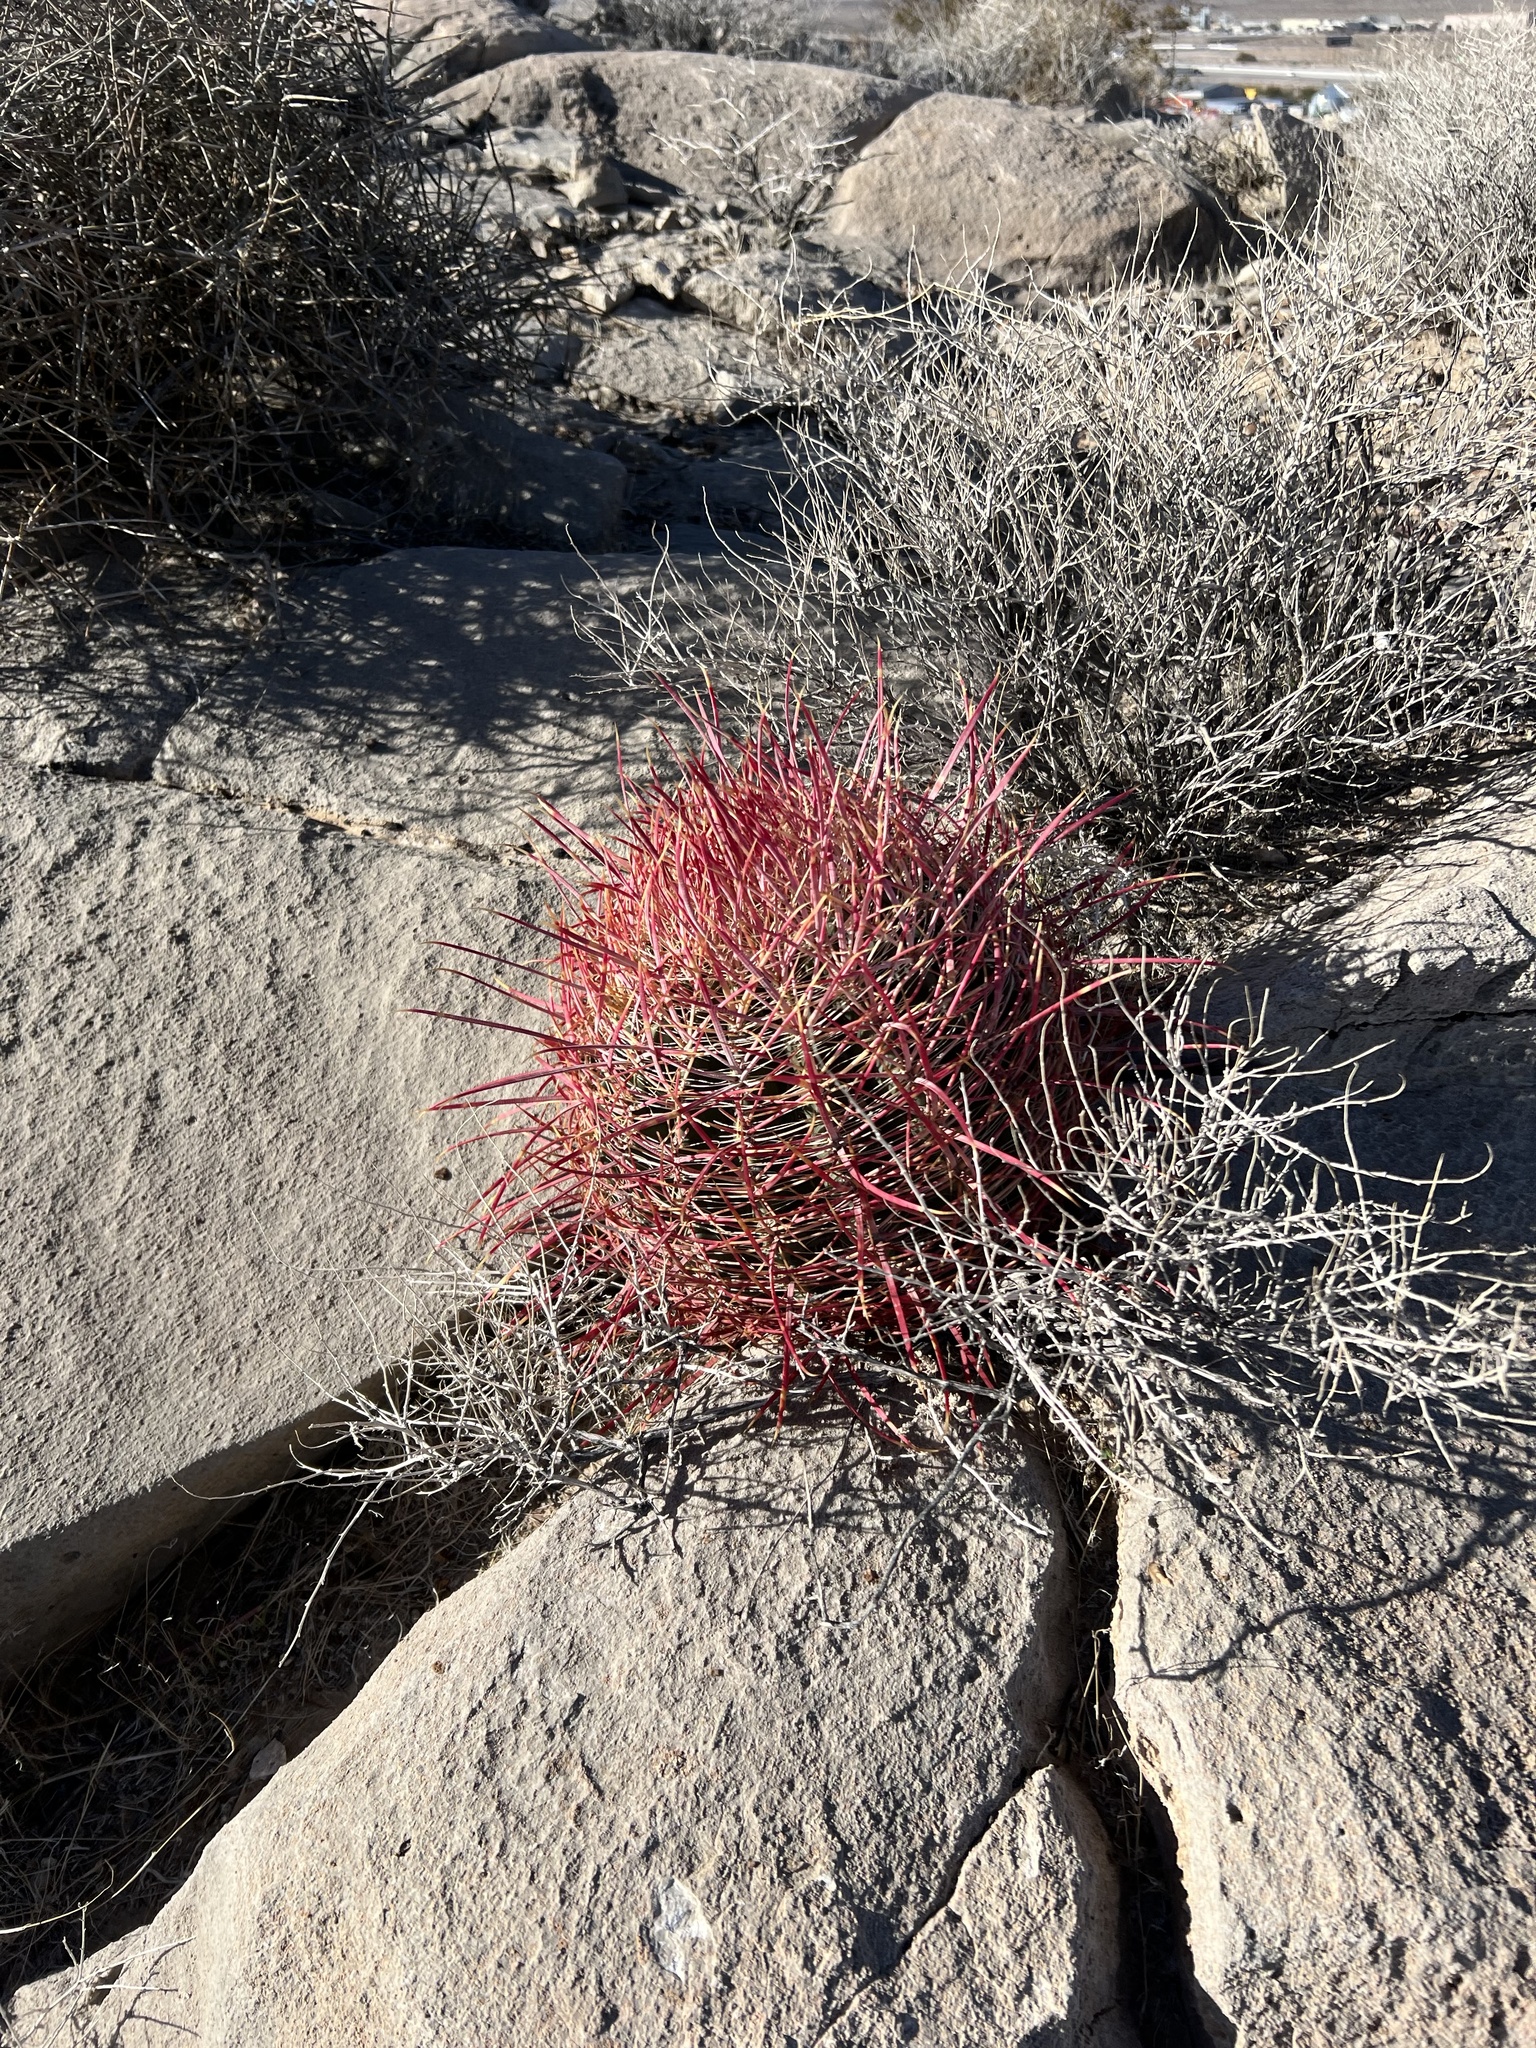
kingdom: Plantae
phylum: Tracheophyta
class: Magnoliopsida
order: Caryophyllales
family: Cactaceae
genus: Ferocactus
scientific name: Ferocactus cylindraceus
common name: California barrel cactus
